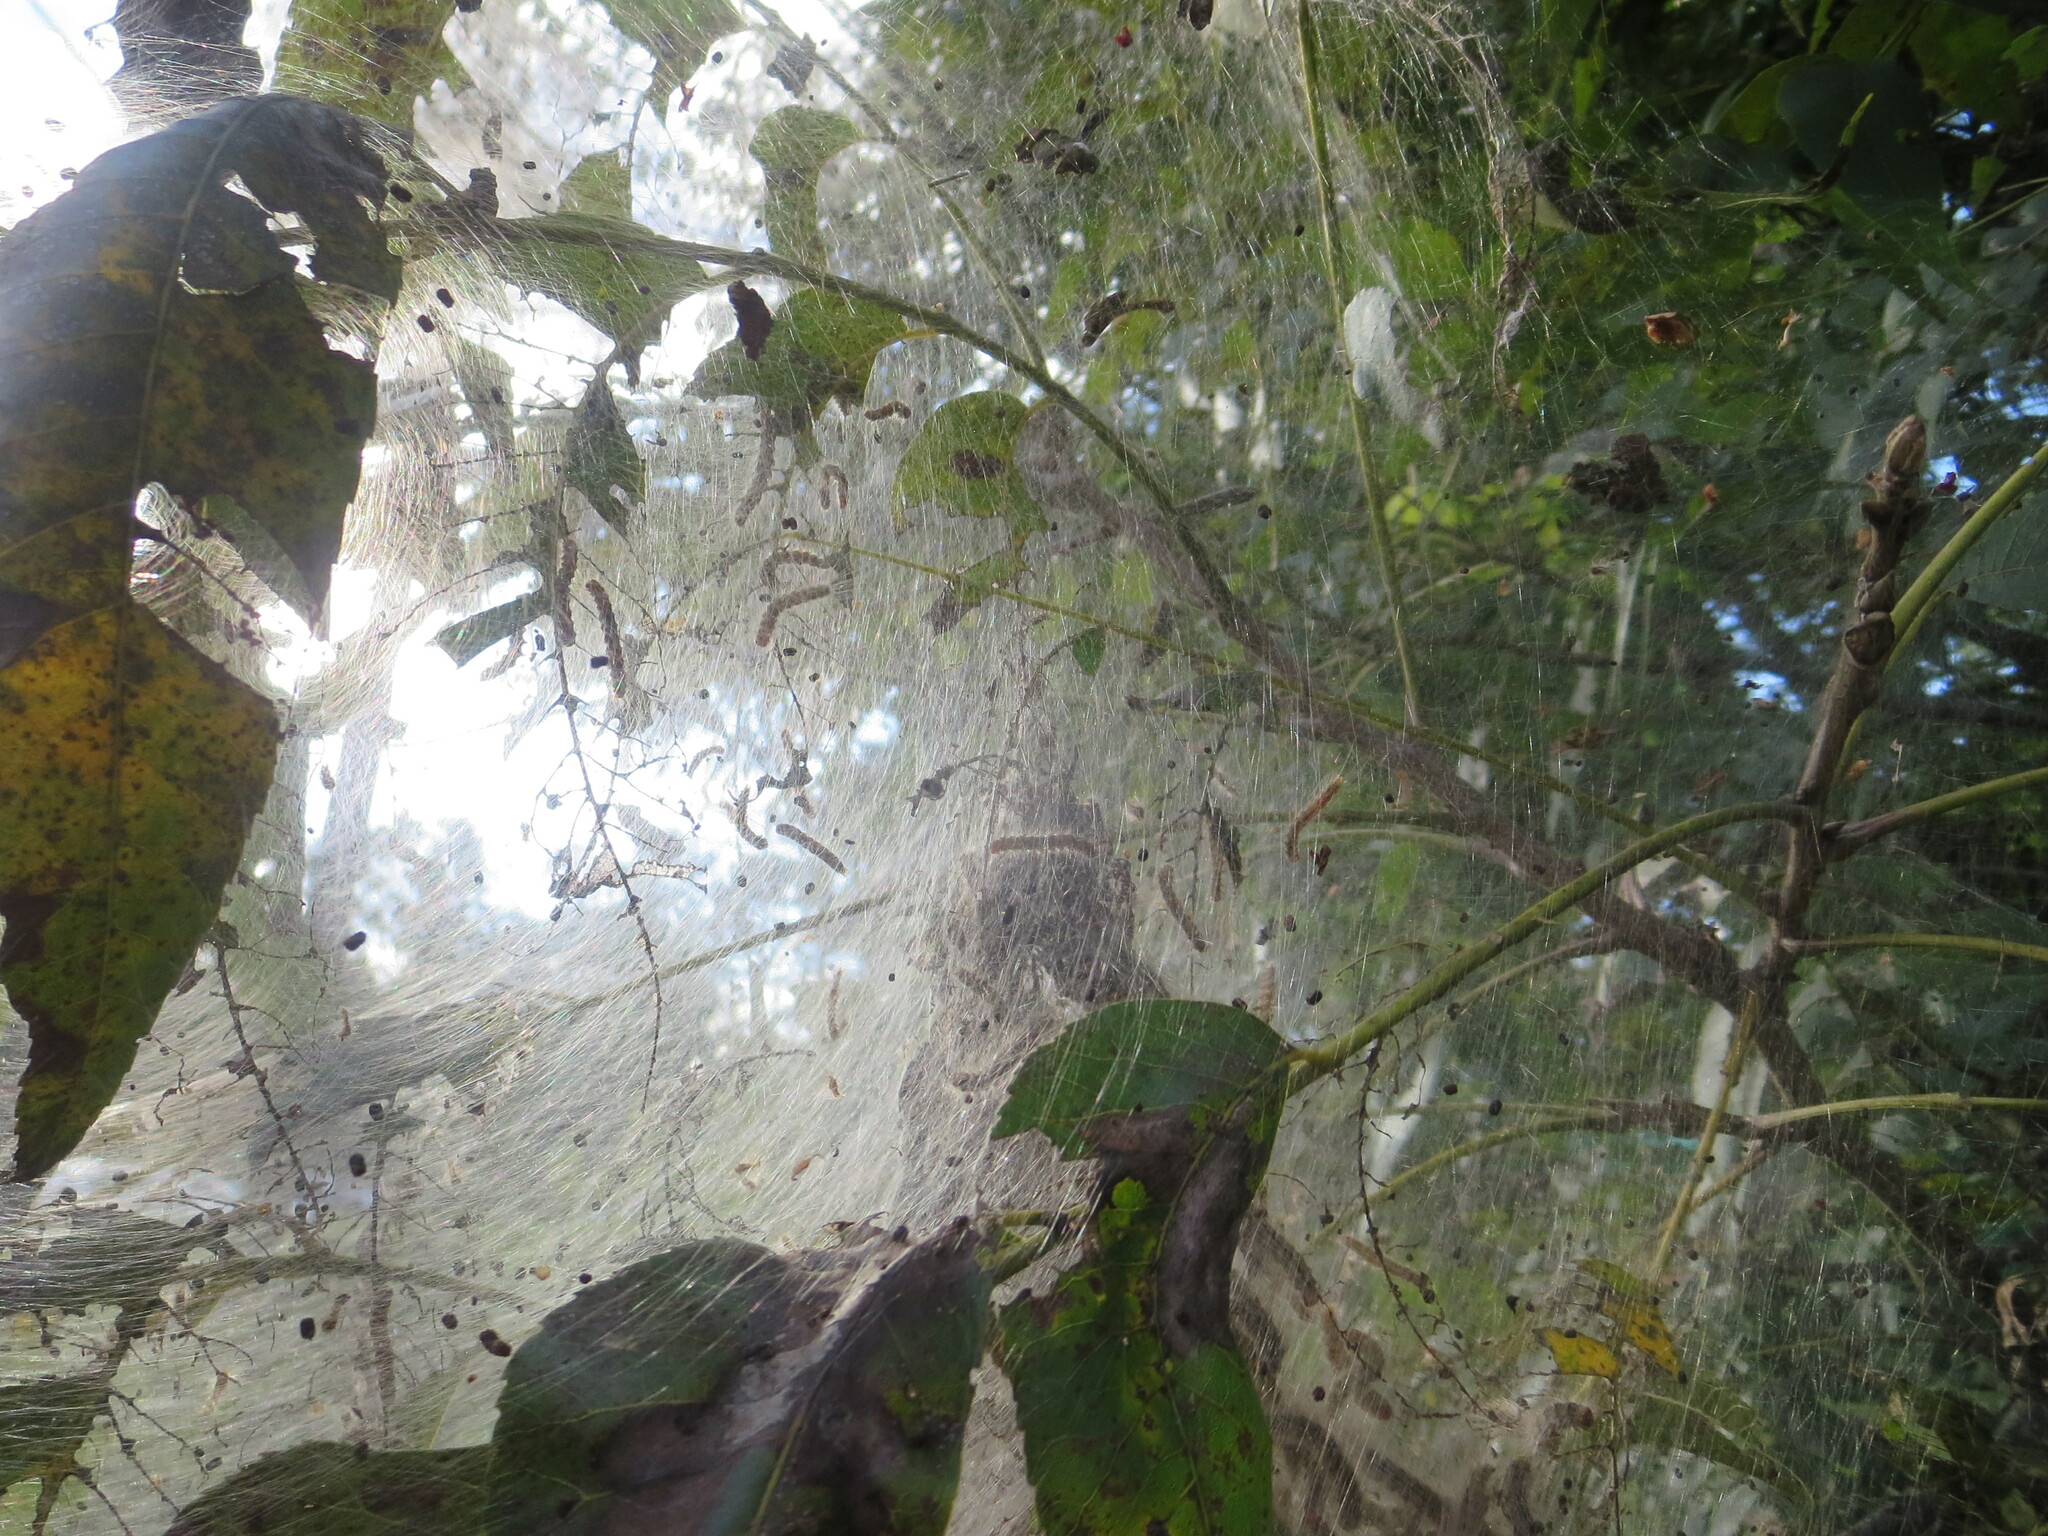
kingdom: Animalia
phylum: Arthropoda
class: Insecta
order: Lepidoptera
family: Erebidae
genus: Hyphantria
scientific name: Hyphantria cunea
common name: American white moth
